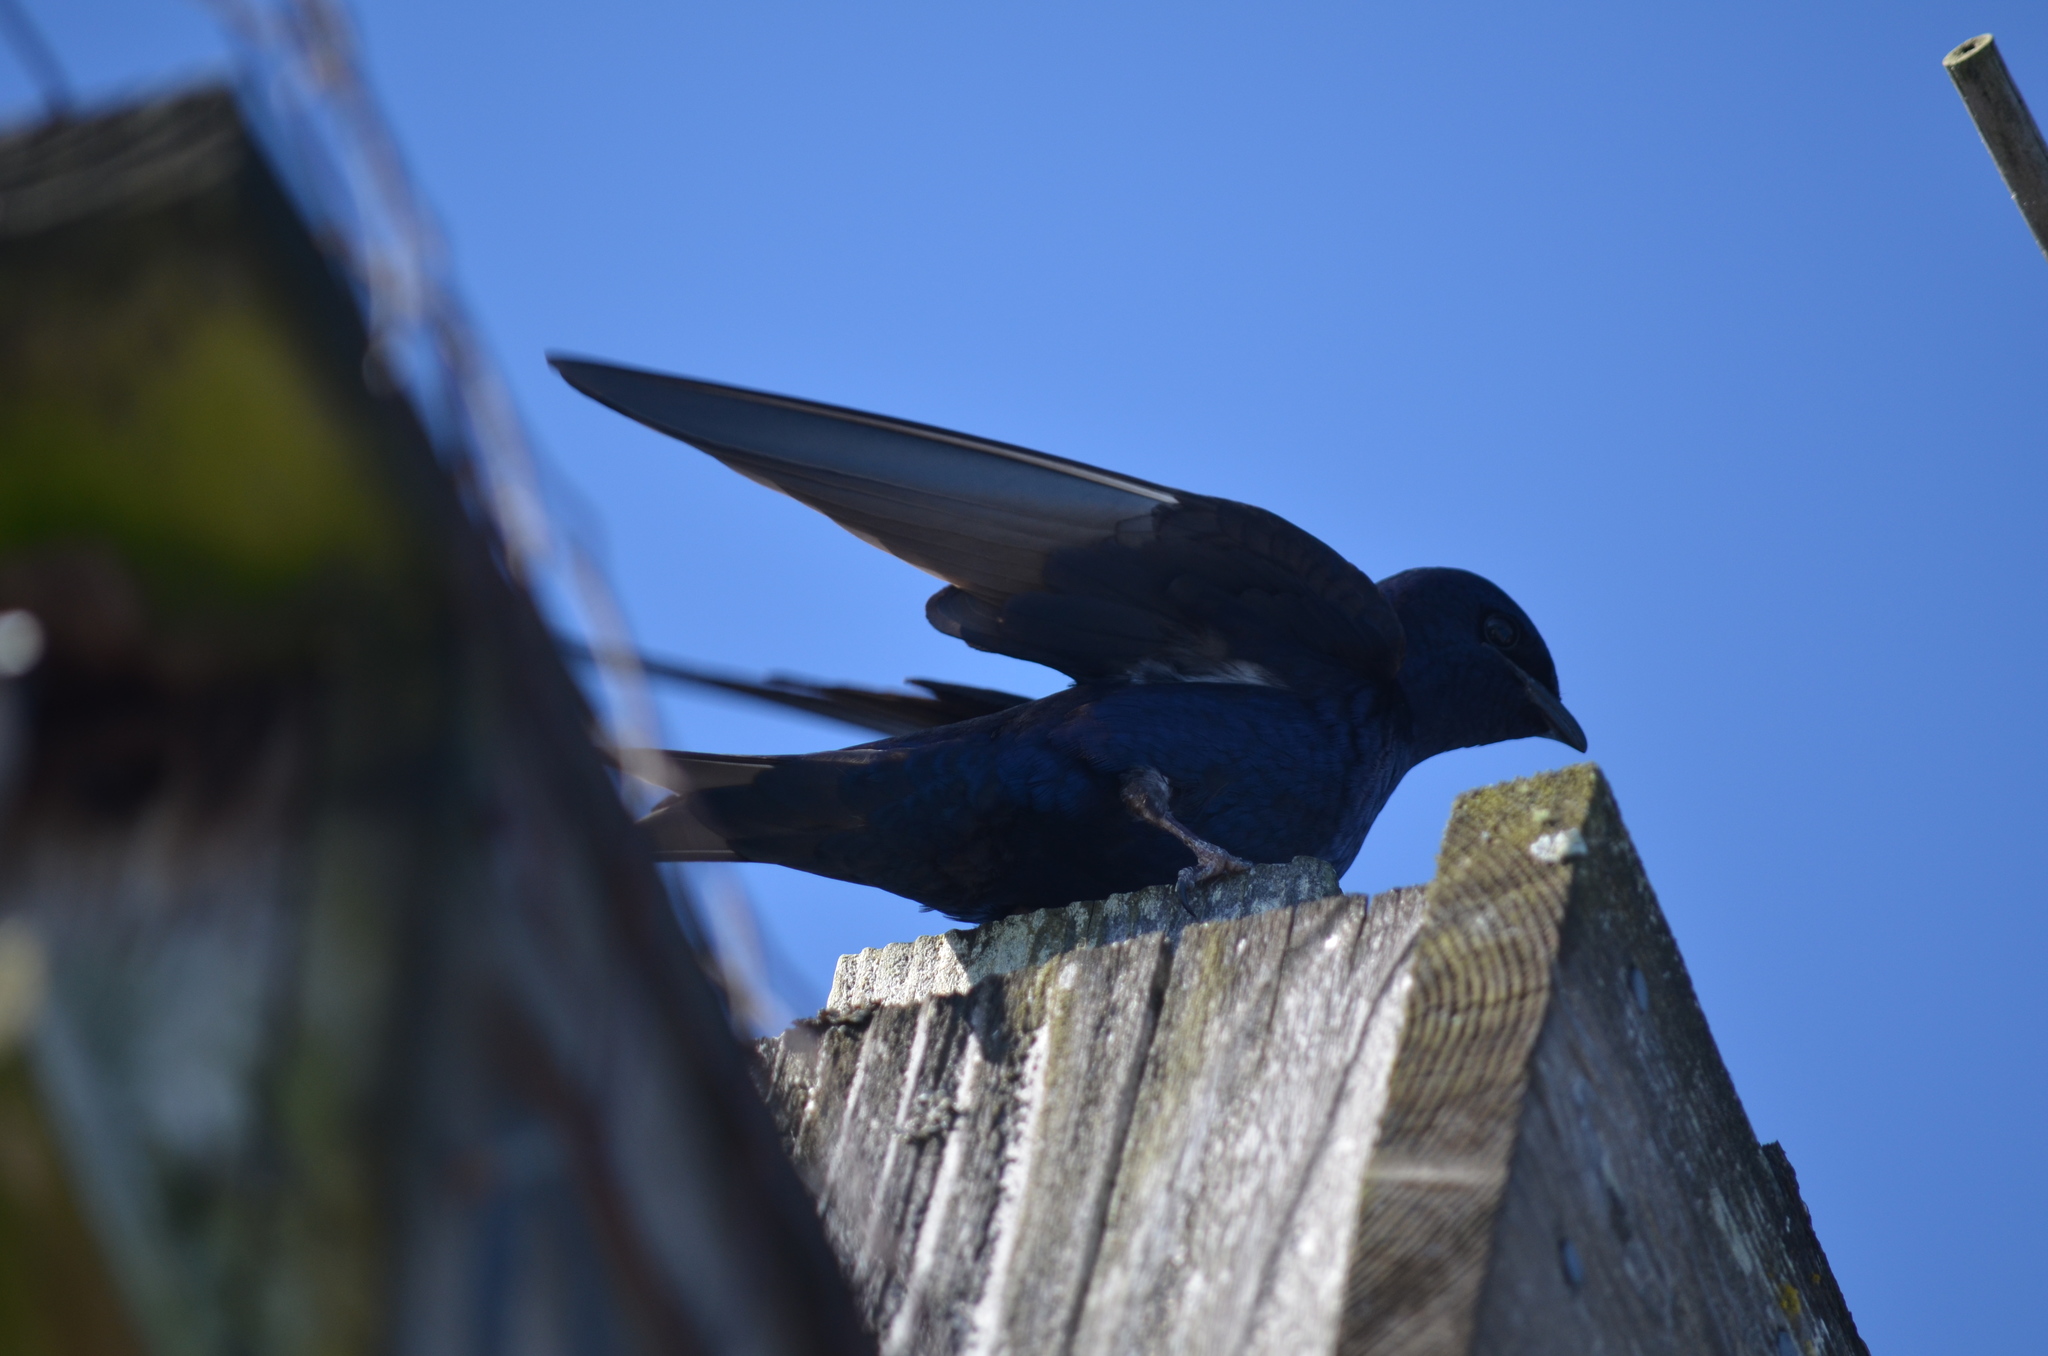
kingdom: Animalia
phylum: Chordata
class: Aves
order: Passeriformes
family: Hirundinidae
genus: Progne
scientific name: Progne subis
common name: Purple martin
